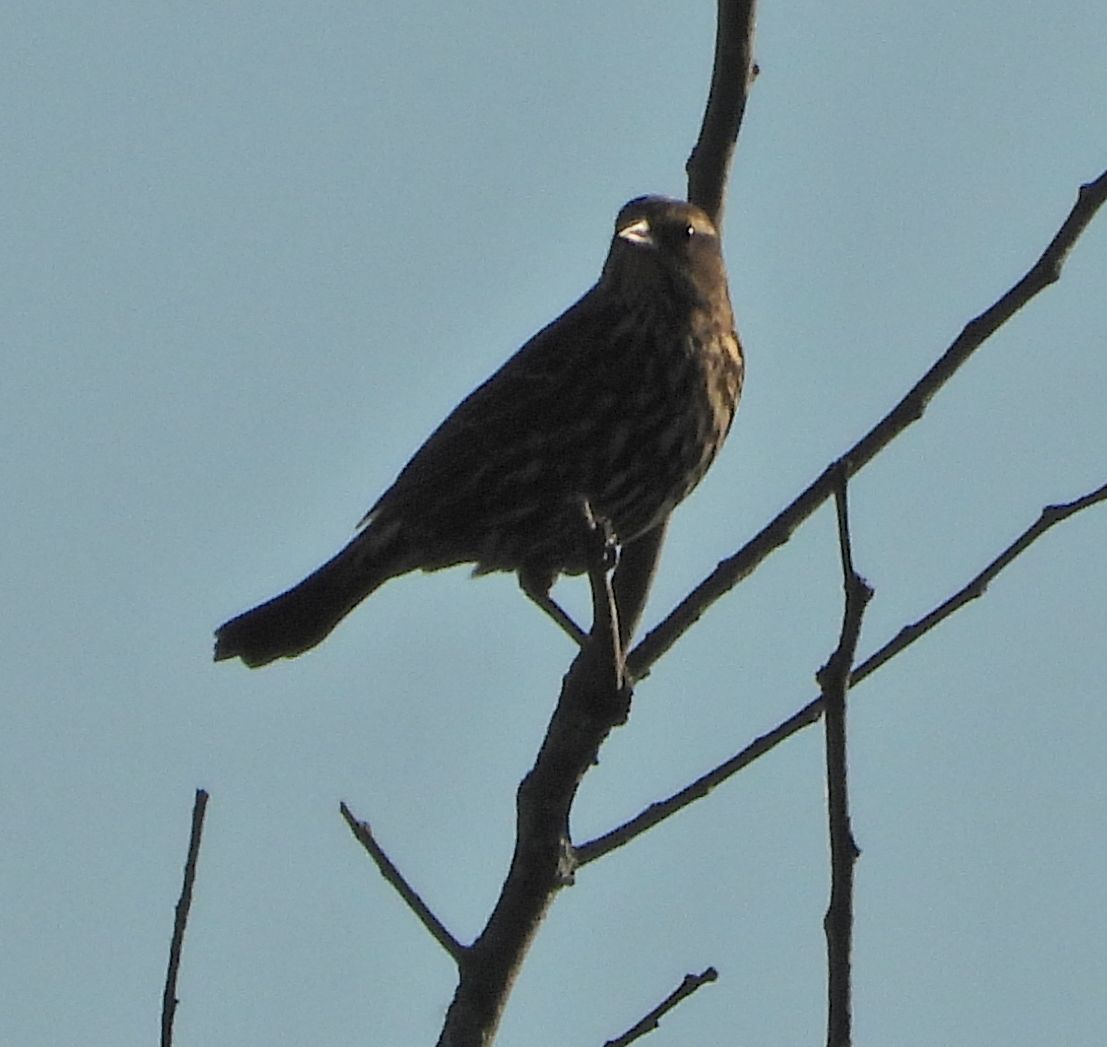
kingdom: Animalia
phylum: Chordata
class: Aves
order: Passeriformes
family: Icteridae
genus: Agelaius
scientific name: Agelaius phoeniceus
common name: Red-winged blackbird
